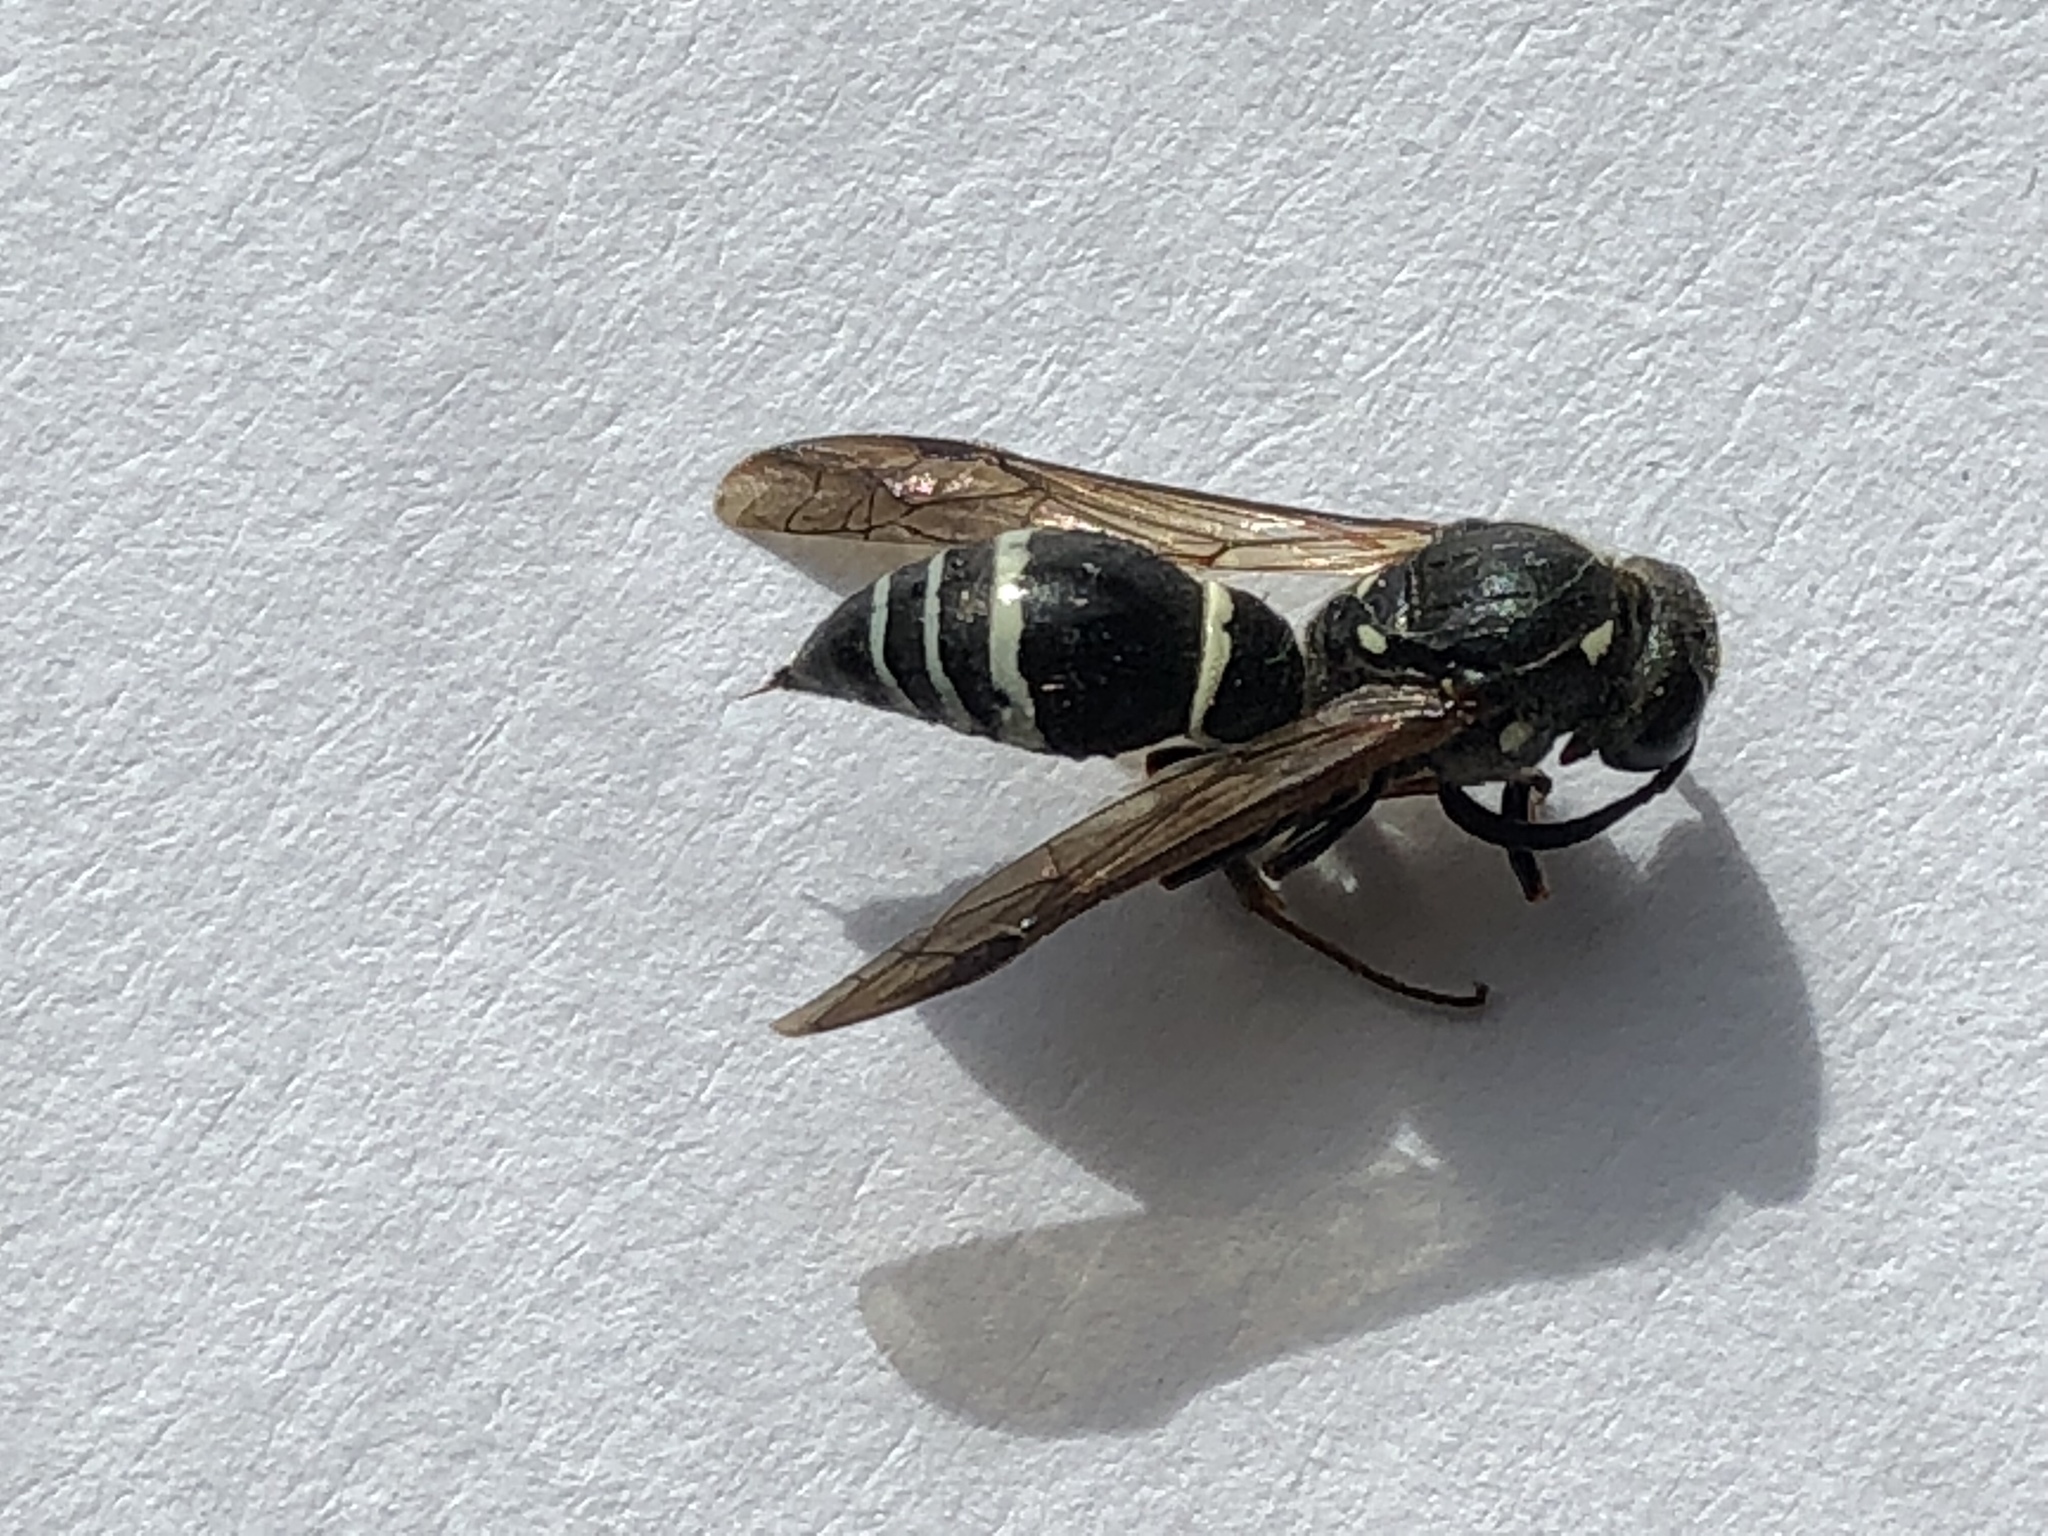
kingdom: Animalia
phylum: Arthropoda
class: Insecta
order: Hymenoptera
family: Eumenidae
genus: Symmorphus
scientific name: Symmorphus albomarginatus
